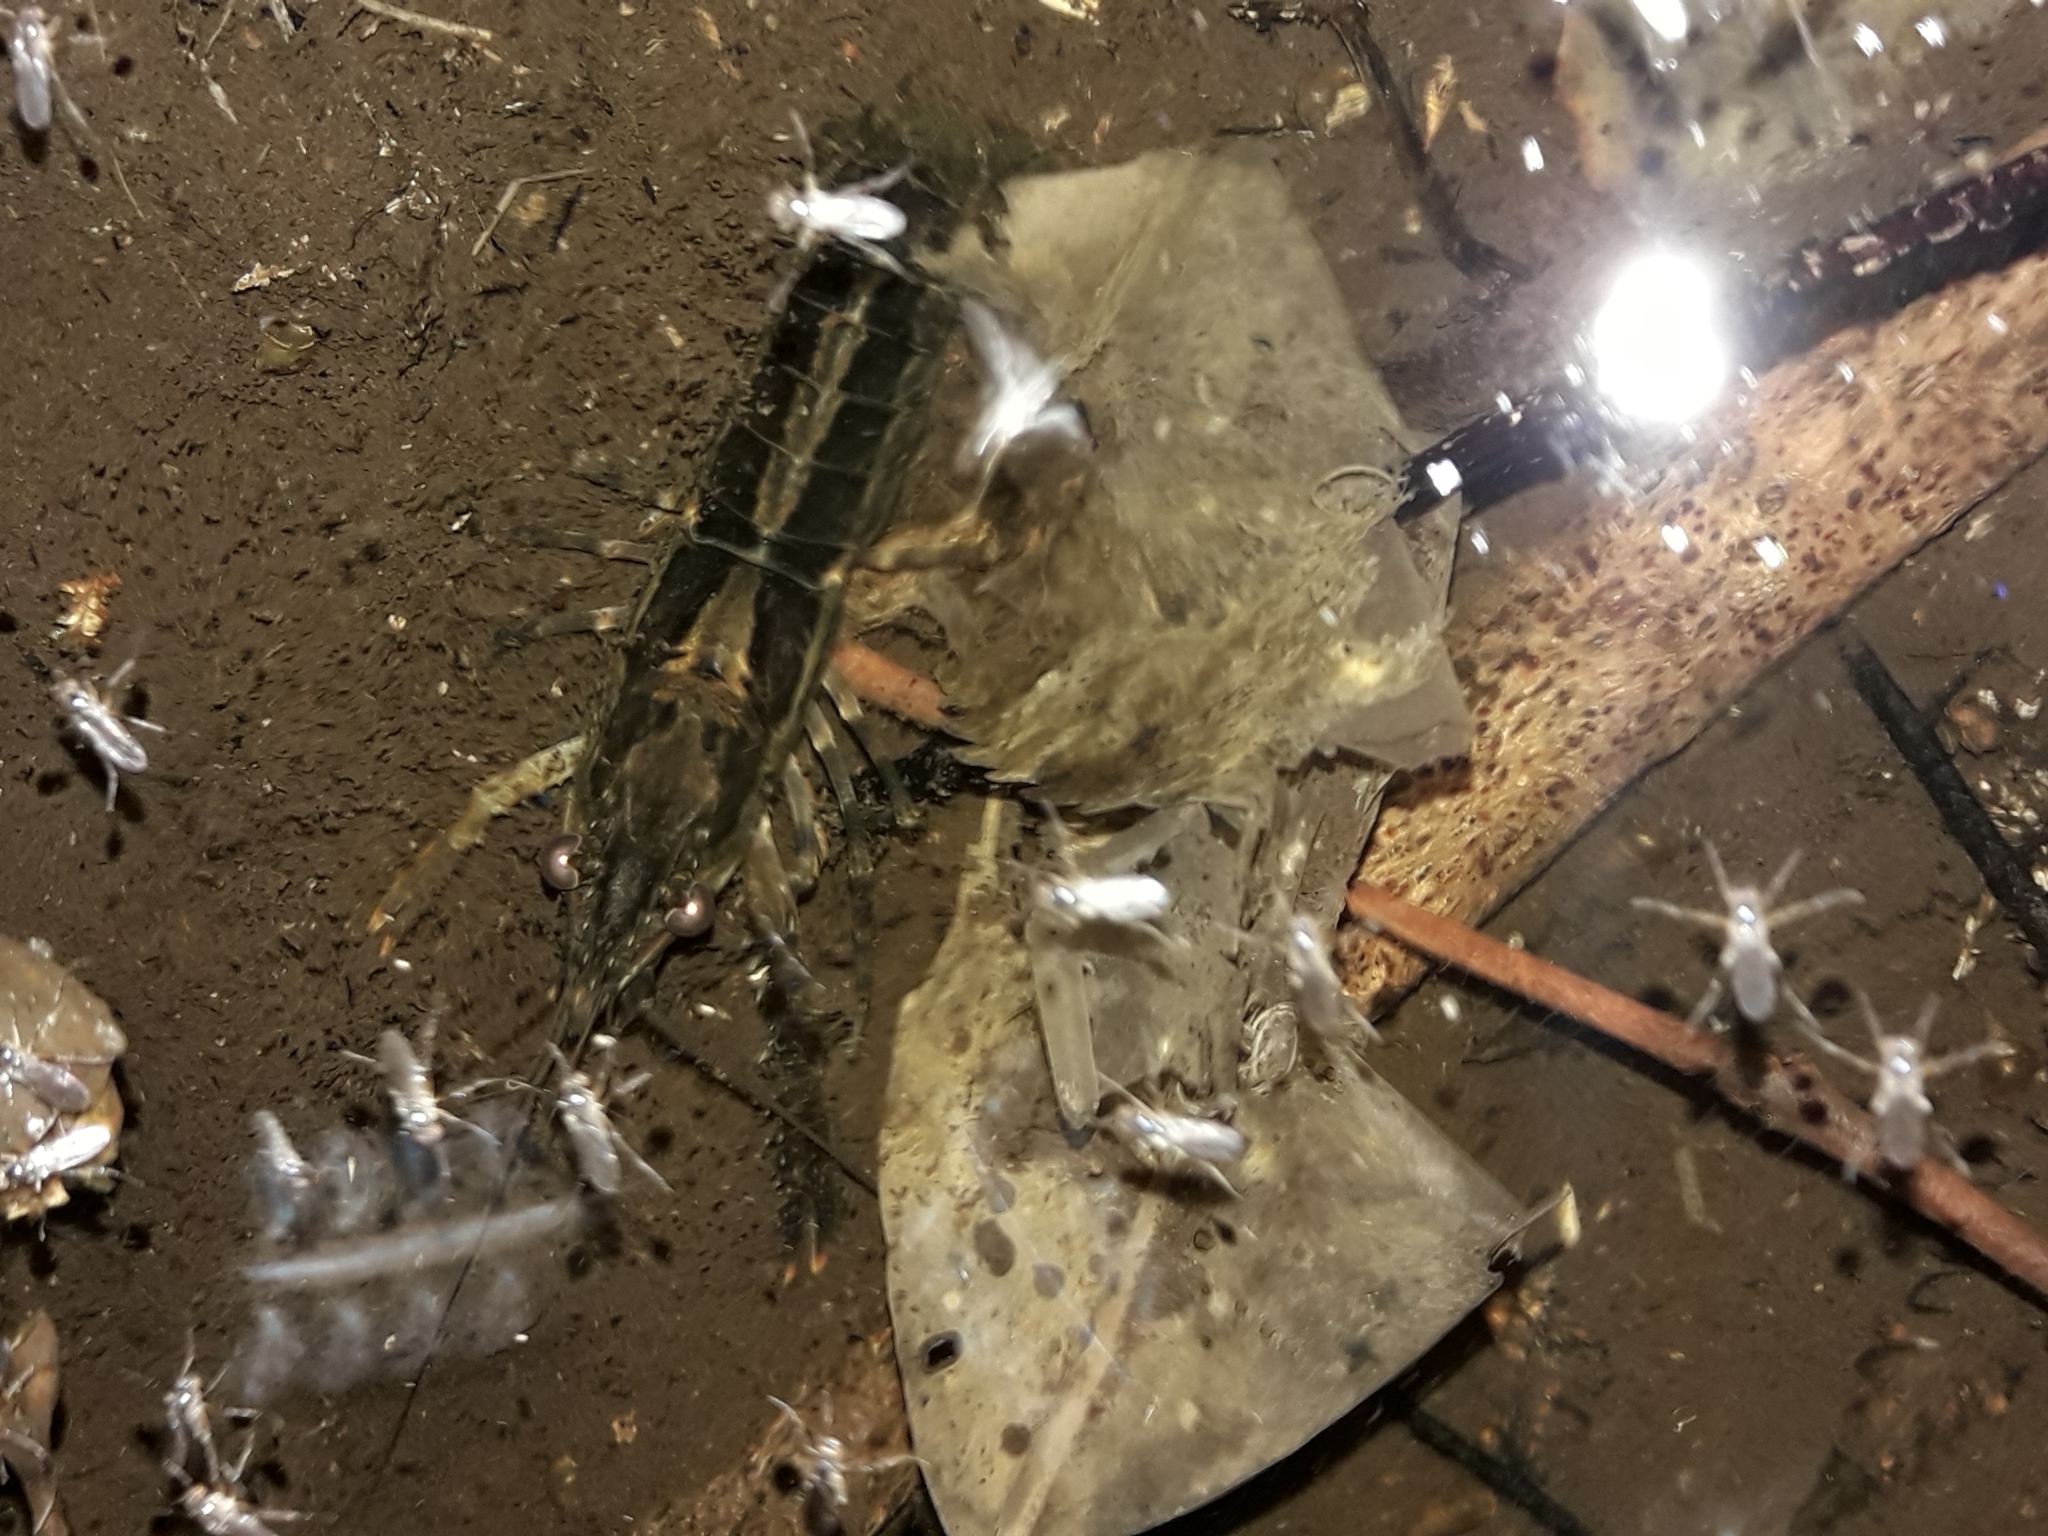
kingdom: Animalia
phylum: Arthropoda
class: Malacostraca
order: Decapoda
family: Parastacidae
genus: Paranephrops
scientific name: Paranephrops planifrons
